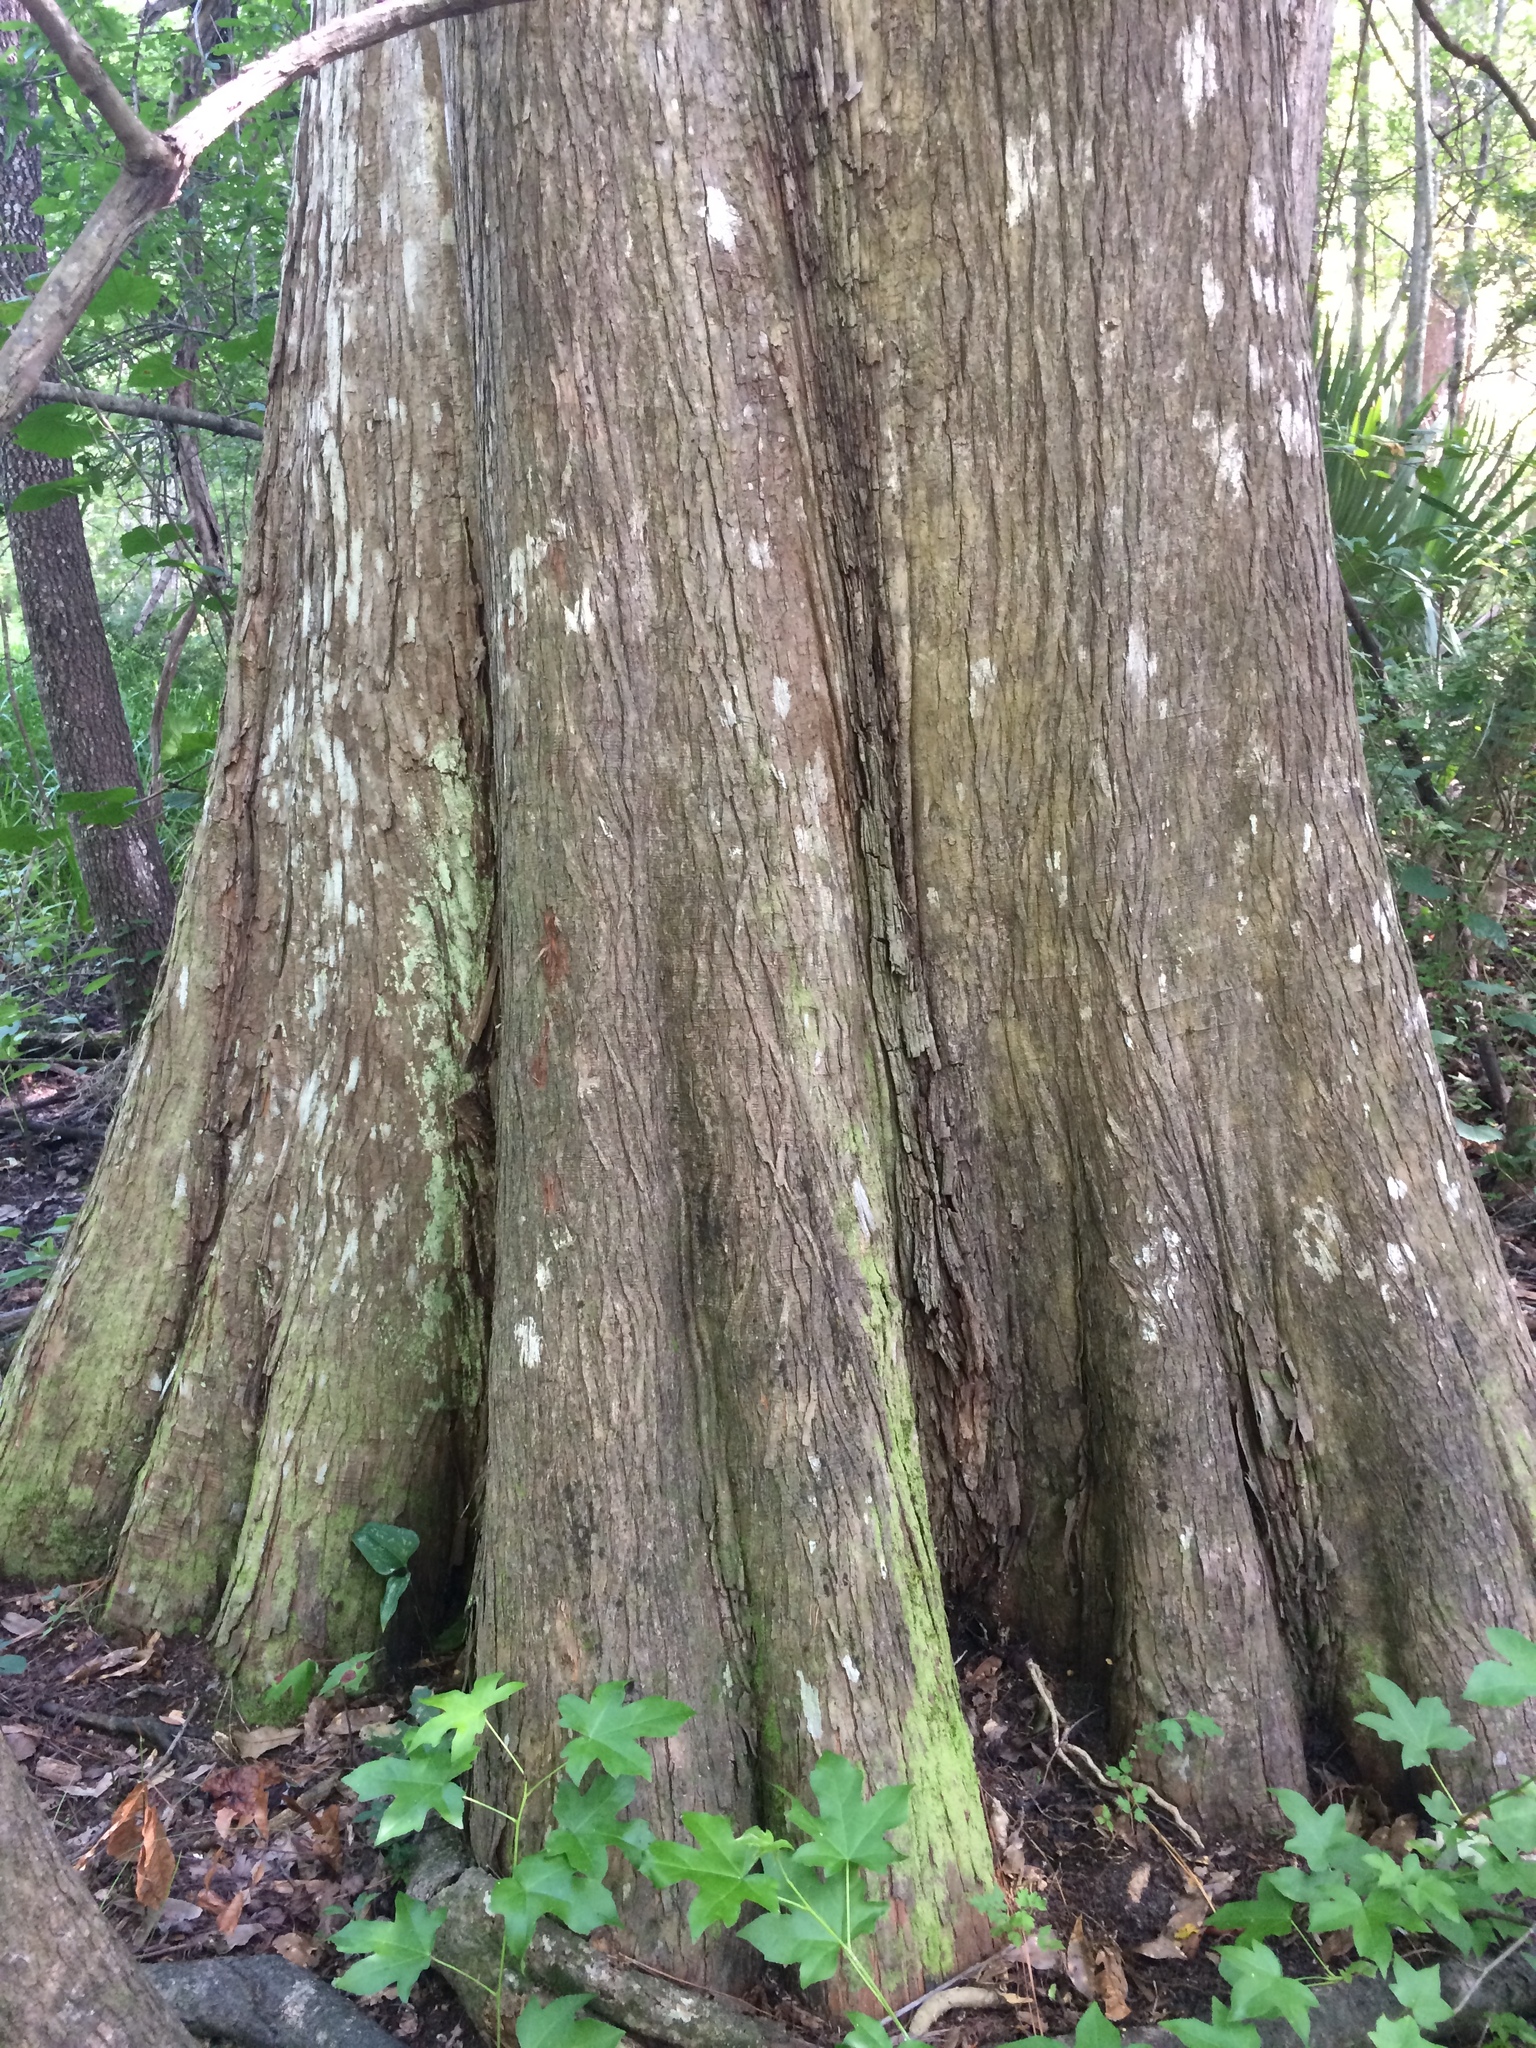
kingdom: Plantae
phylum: Tracheophyta
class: Pinopsida
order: Pinales
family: Cupressaceae
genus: Taxodium
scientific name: Taxodium distichum
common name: Bald cypress
